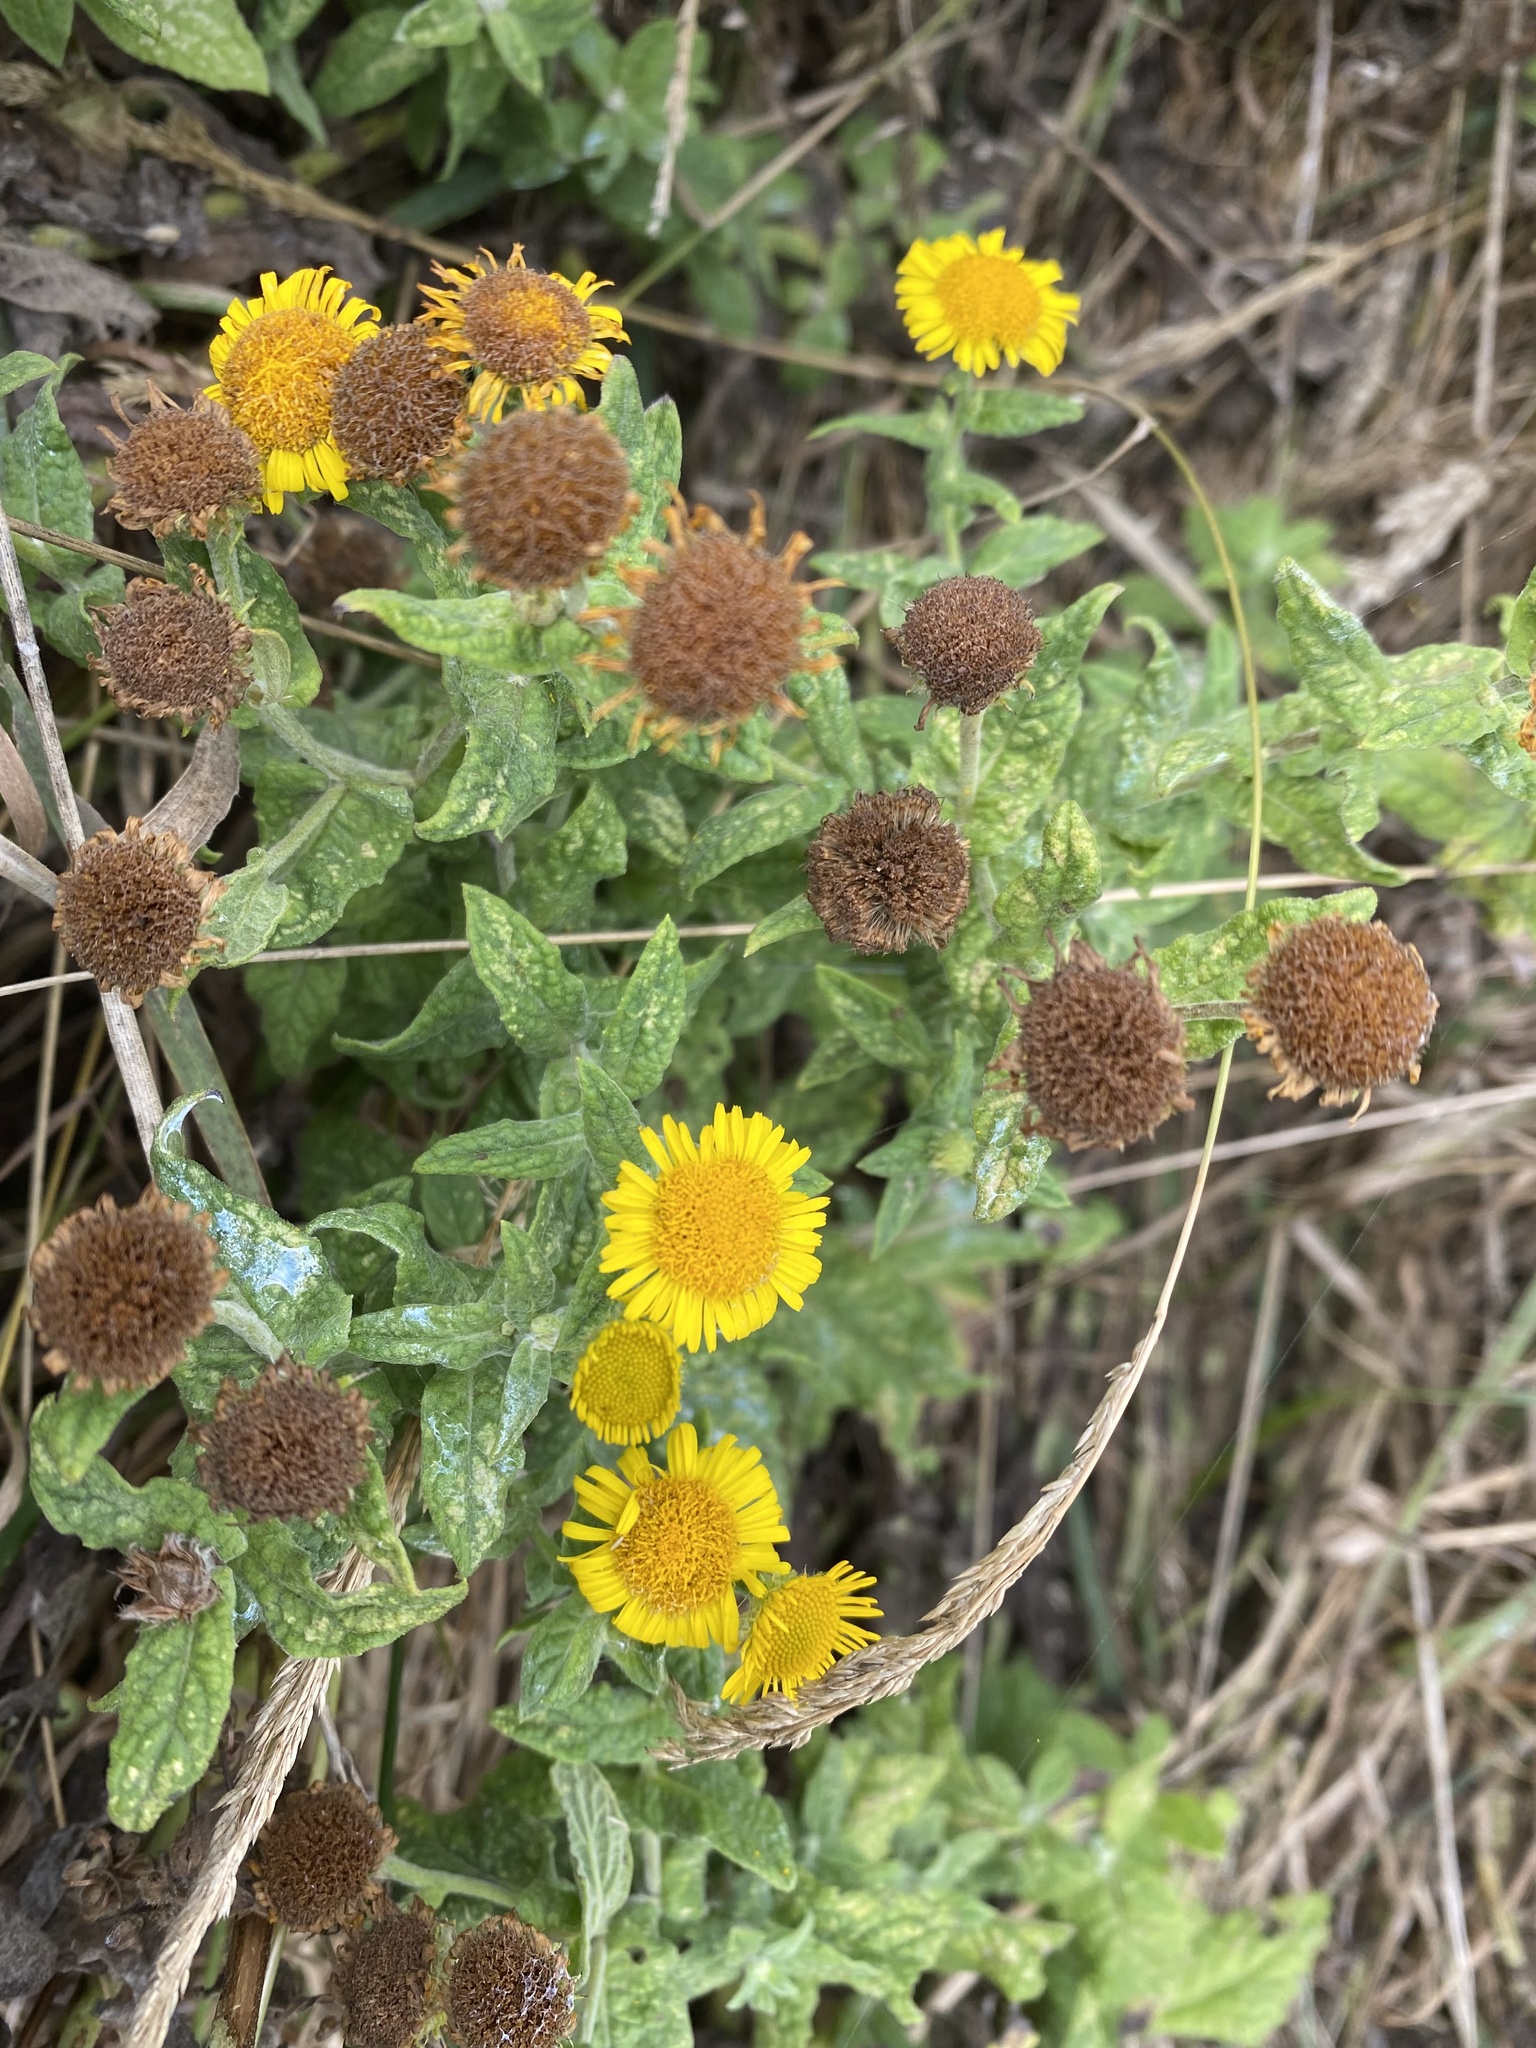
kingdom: Plantae
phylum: Tracheophyta
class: Magnoliopsida
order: Asterales
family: Asteraceae
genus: Pulicaria
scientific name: Pulicaria dysenterica
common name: Common fleabane
